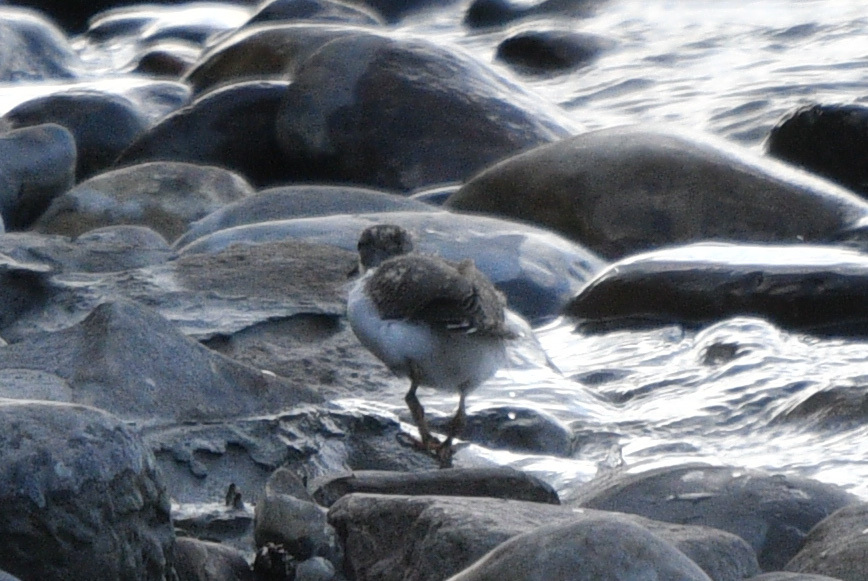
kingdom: Animalia
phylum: Chordata
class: Aves
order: Charadriiformes
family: Scolopacidae
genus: Actitis
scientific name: Actitis macularius
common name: Spotted sandpiper
